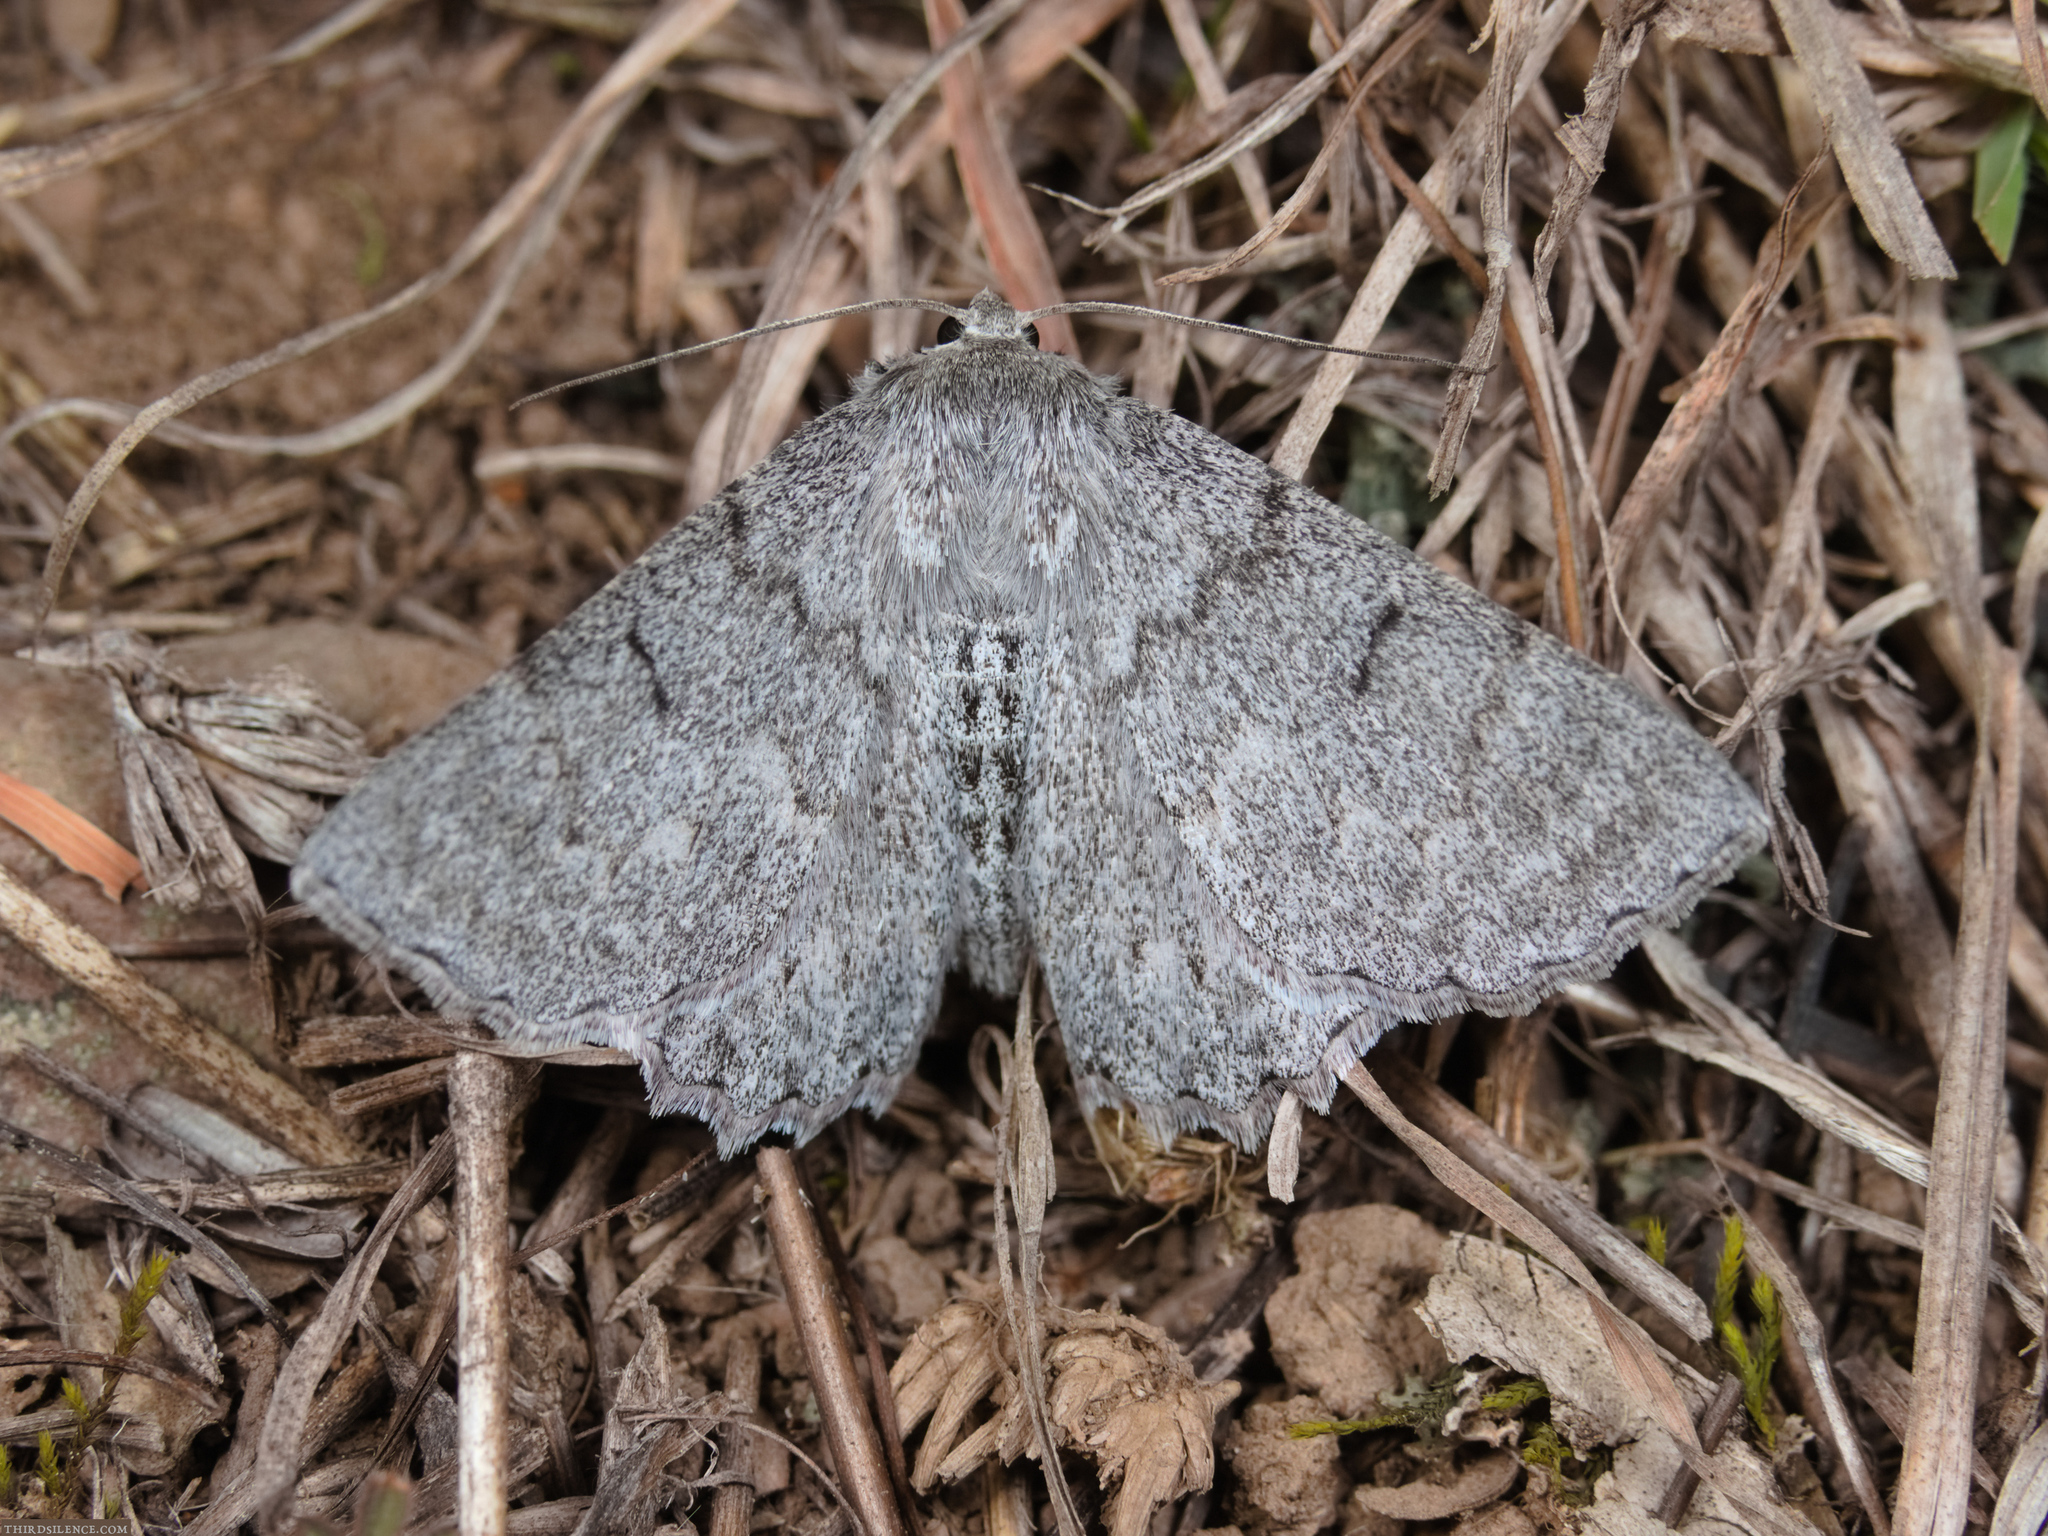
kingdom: Animalia
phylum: Arthropoda
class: Insecta
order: Lepidoptera
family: Geometridae
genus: Crypsiphona
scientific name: Crypsiphona ocultaria
